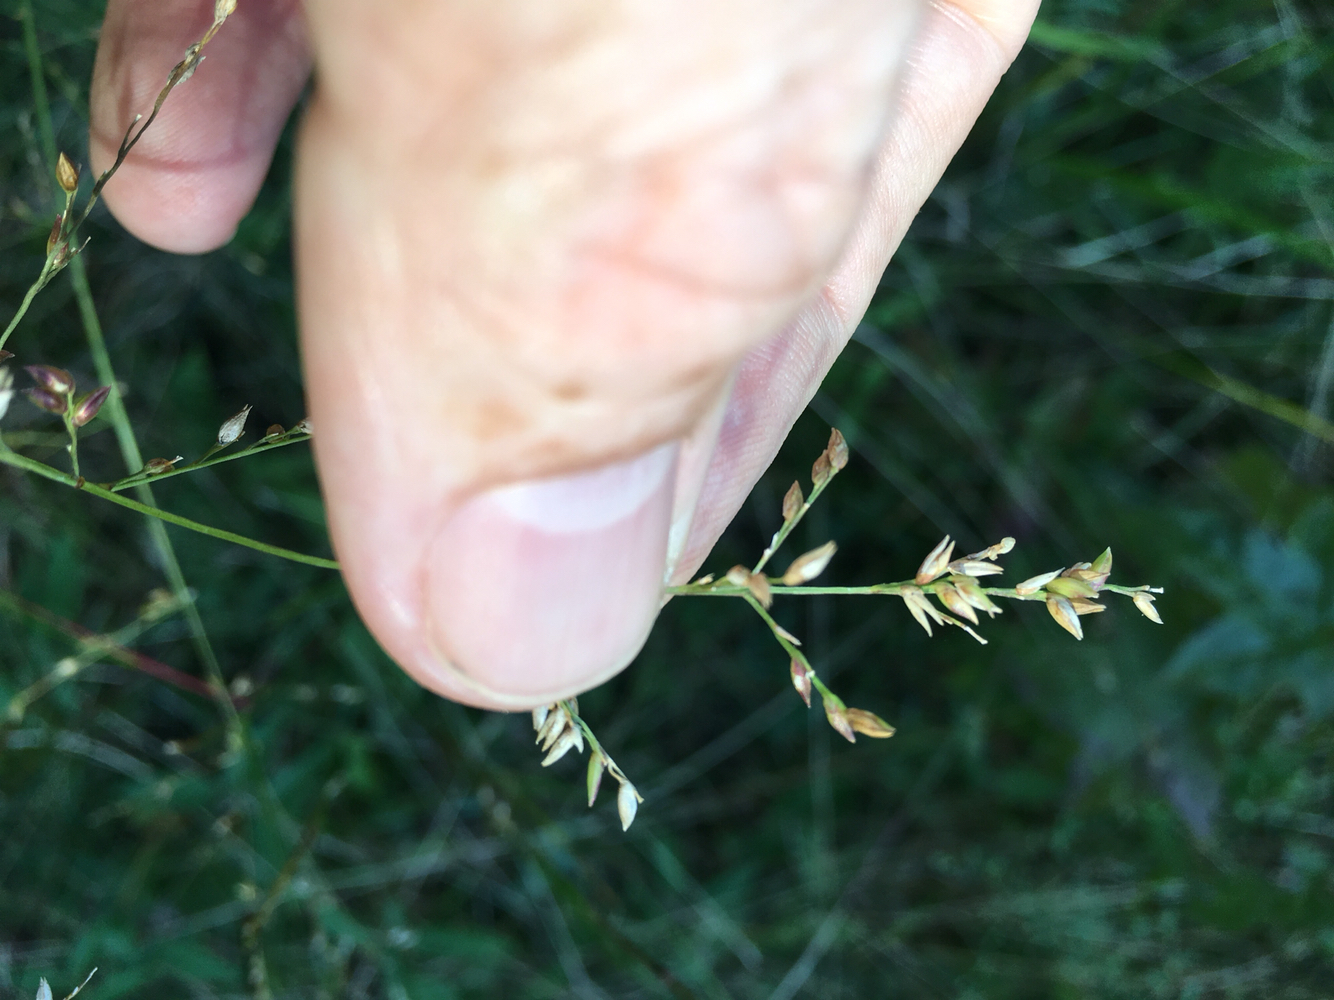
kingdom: Plantae
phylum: Tracheophyta
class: Liliopsida
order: Poales
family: Poaceae
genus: Coleataenia
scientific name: Coleataenia anceps
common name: Beaked panic grass
